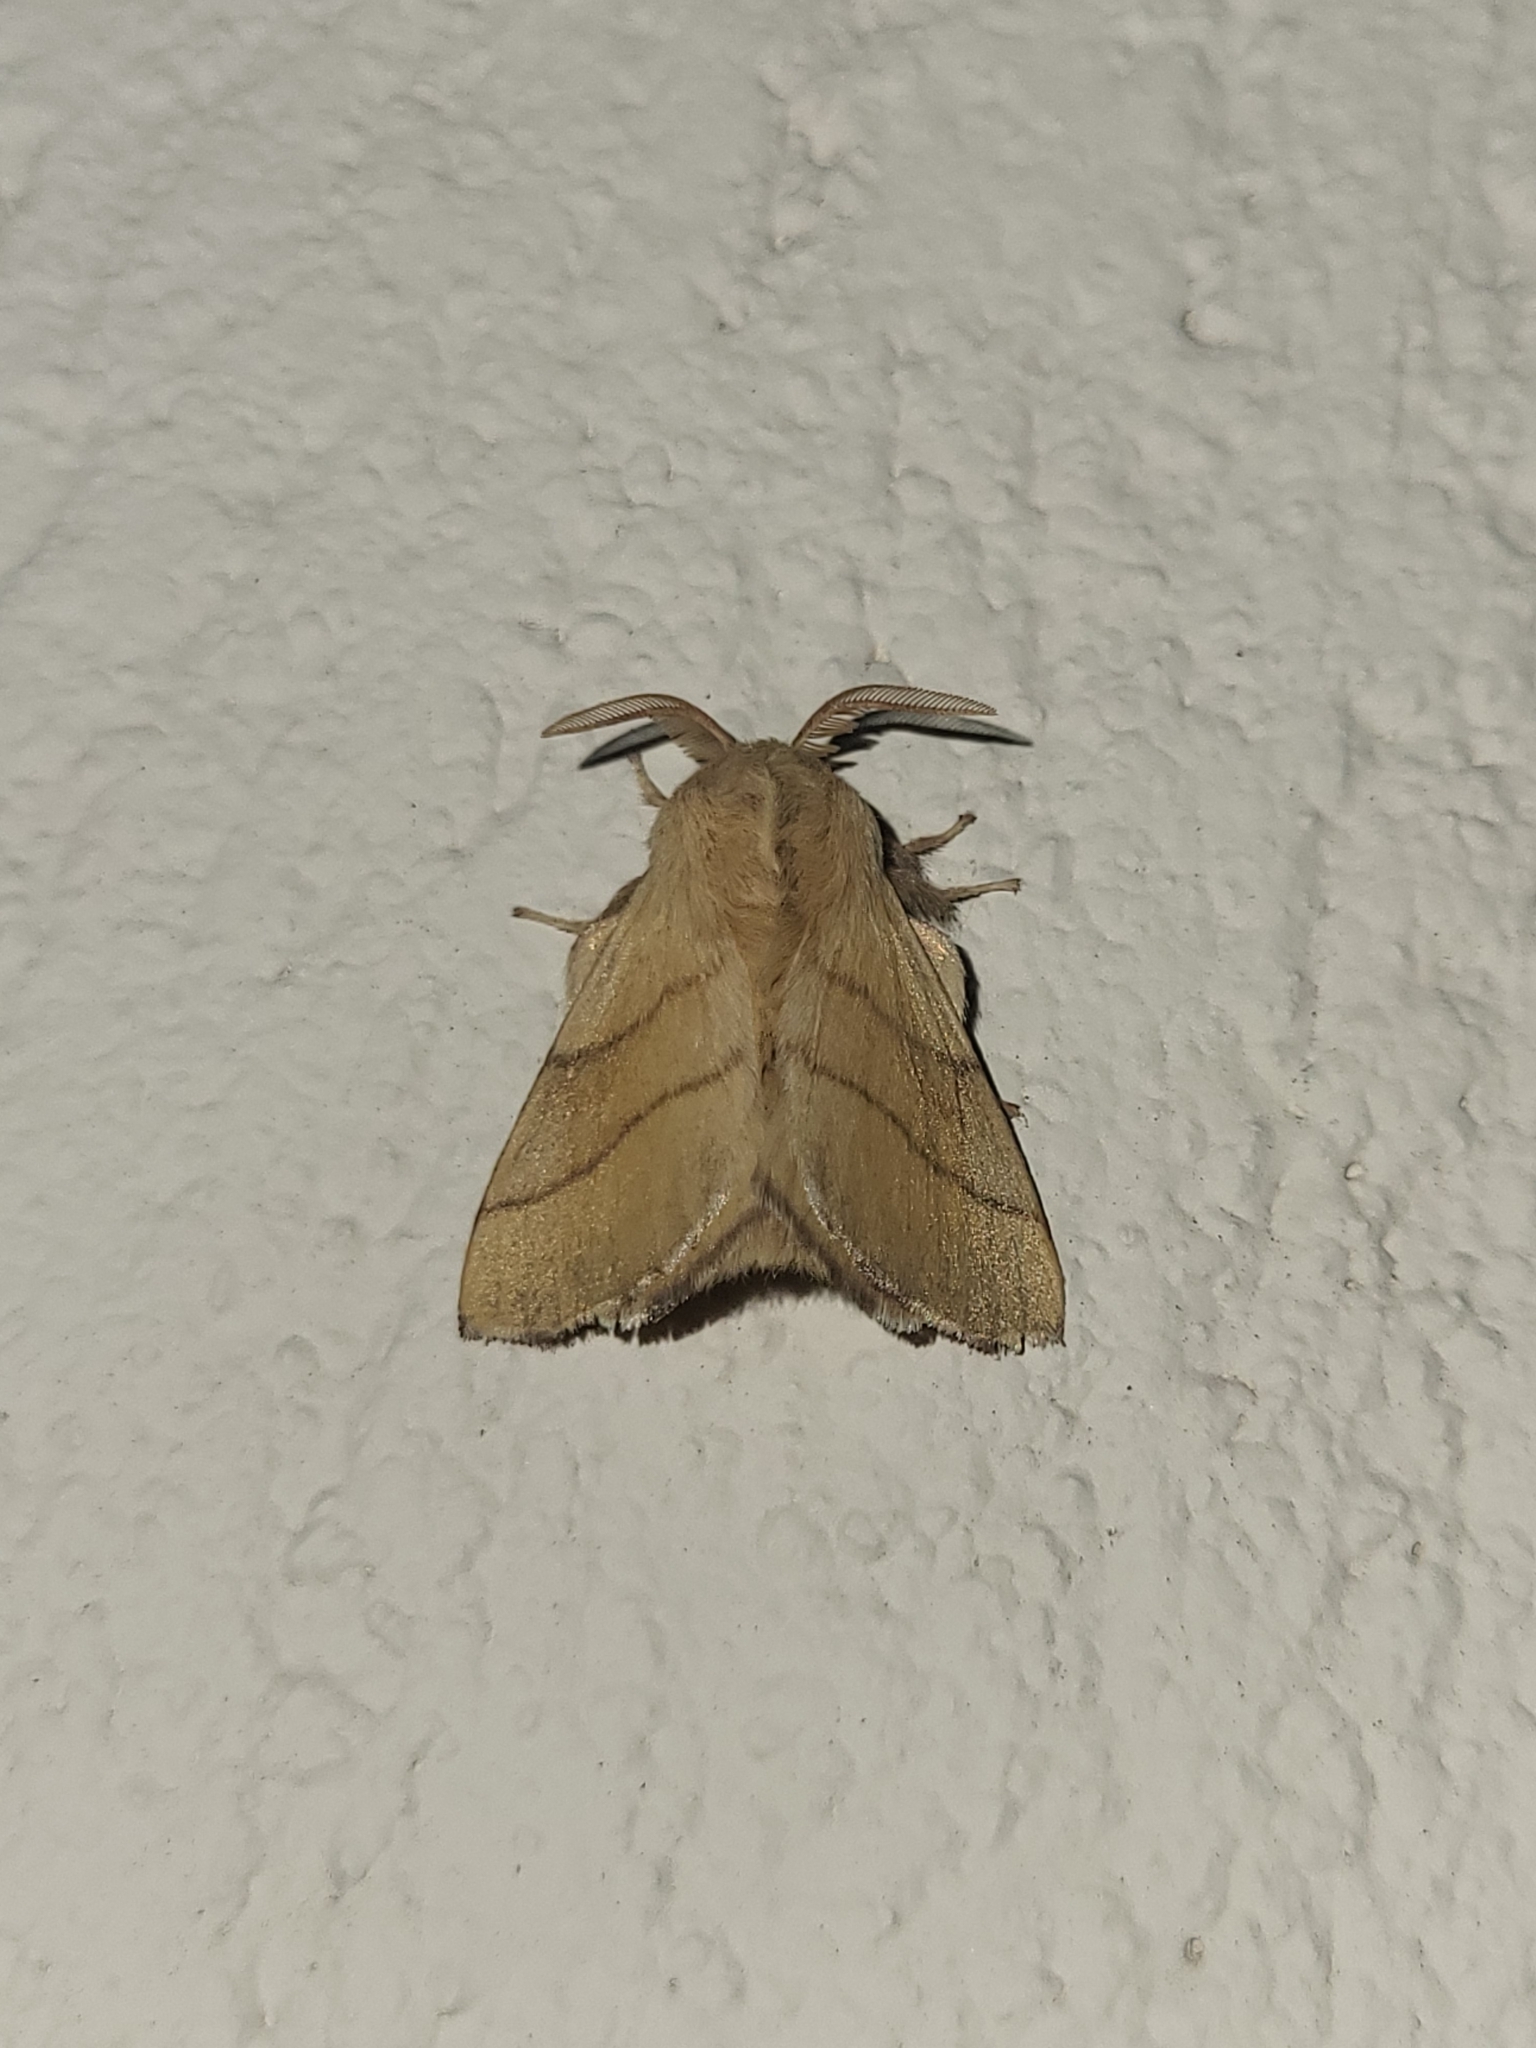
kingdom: Animalia
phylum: Arthropoda
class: Insecta
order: Lepidoptera
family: Lasiocampidae
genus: Malacosoma
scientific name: Malacosoma neustria
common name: The lackey
